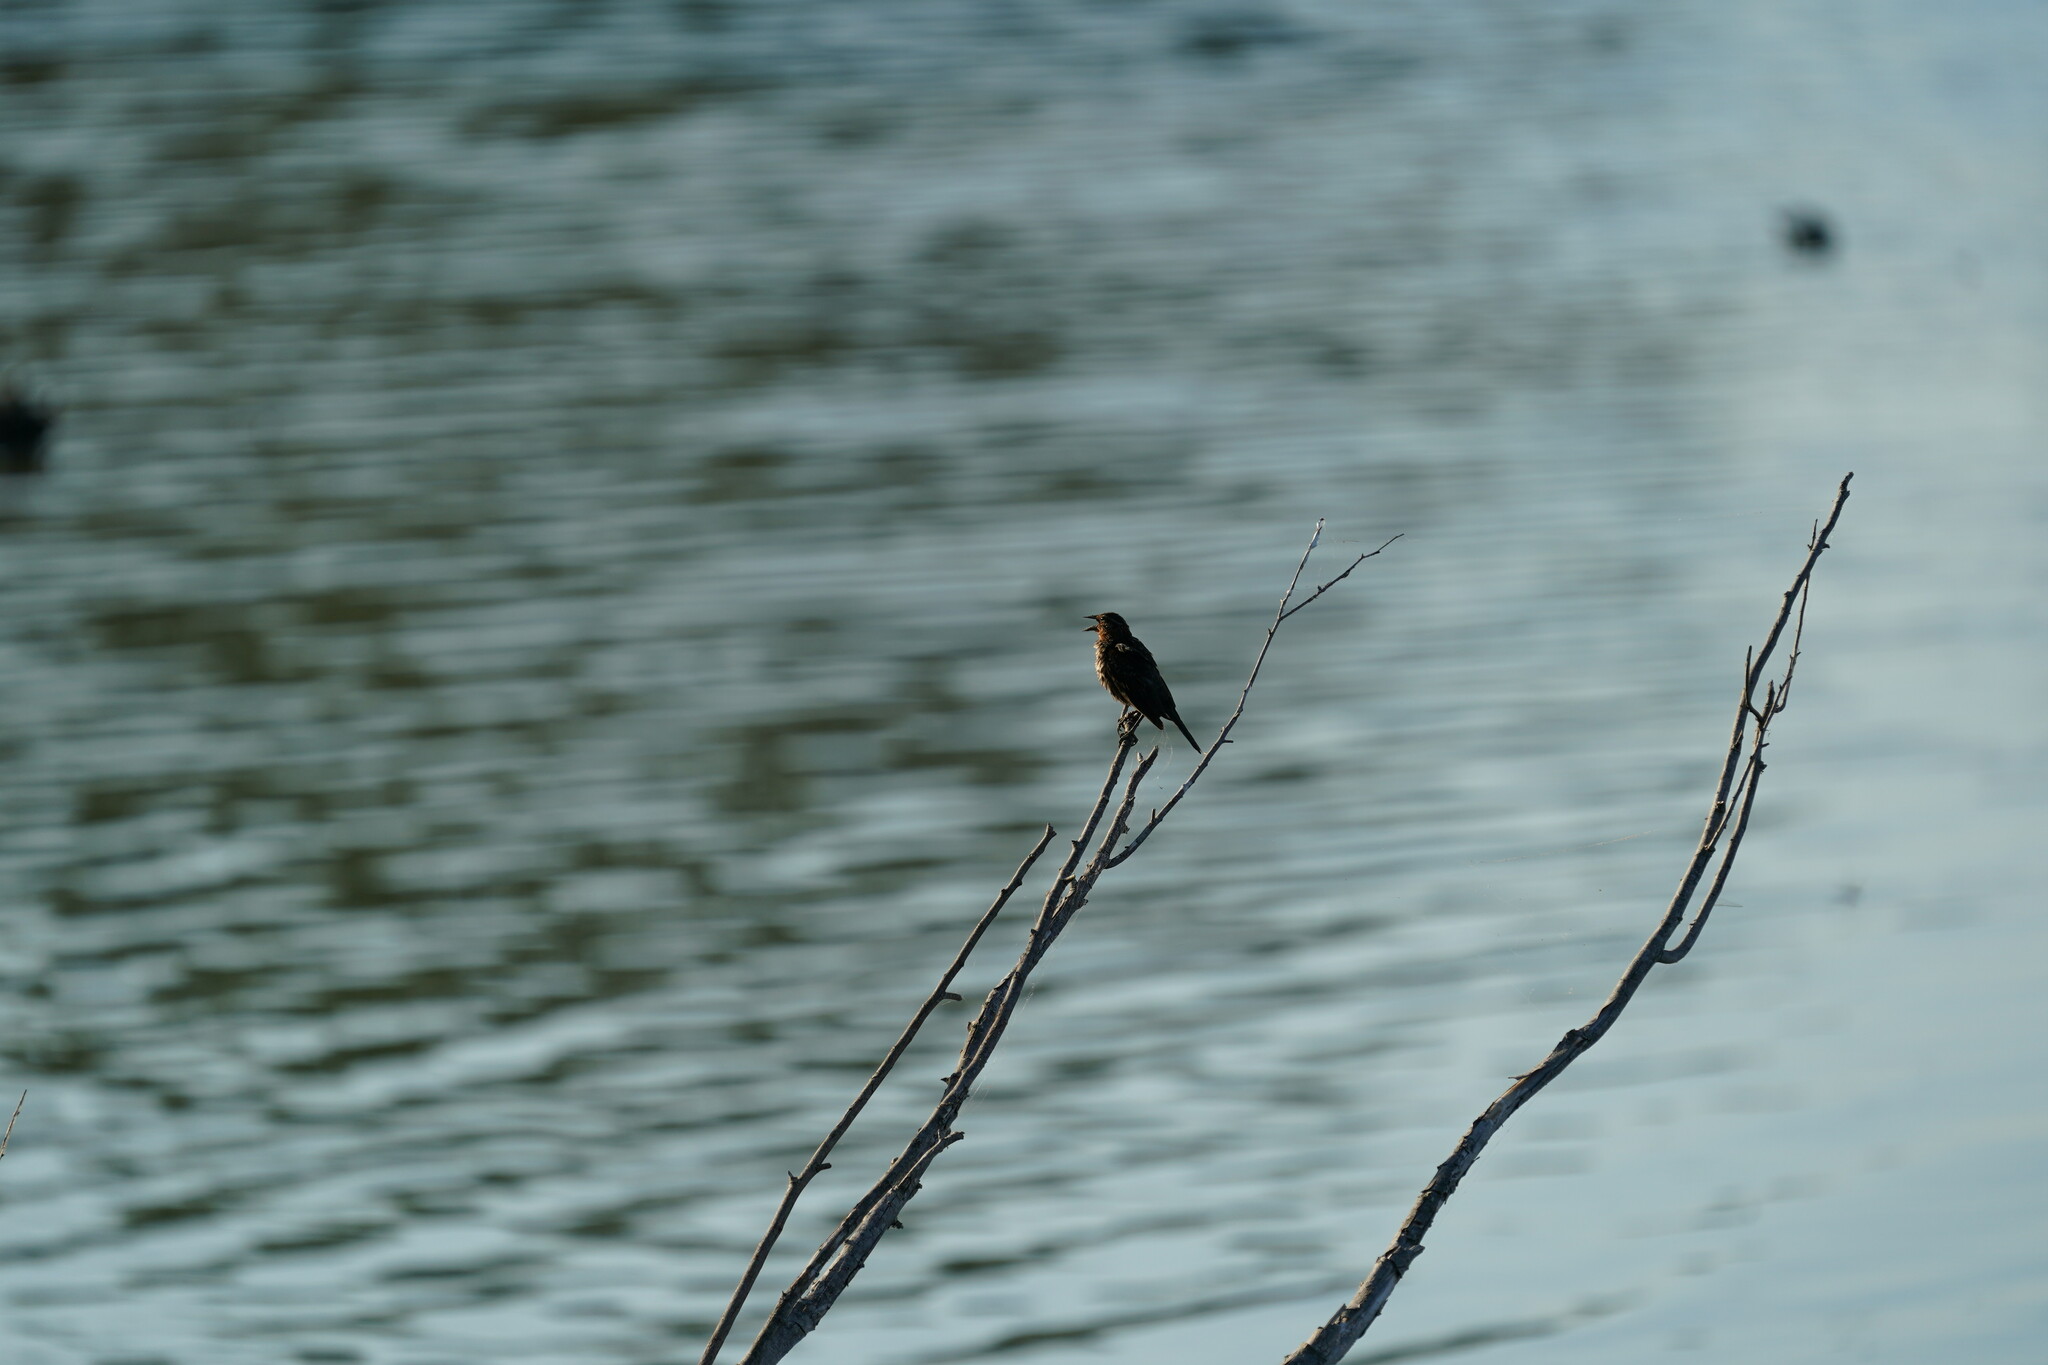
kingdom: Animalia
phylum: Chordata
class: Aves
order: Passeriformes
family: Icteridae
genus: Agelaius
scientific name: Agelaius phoeniceus
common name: Red-winged blackbird
